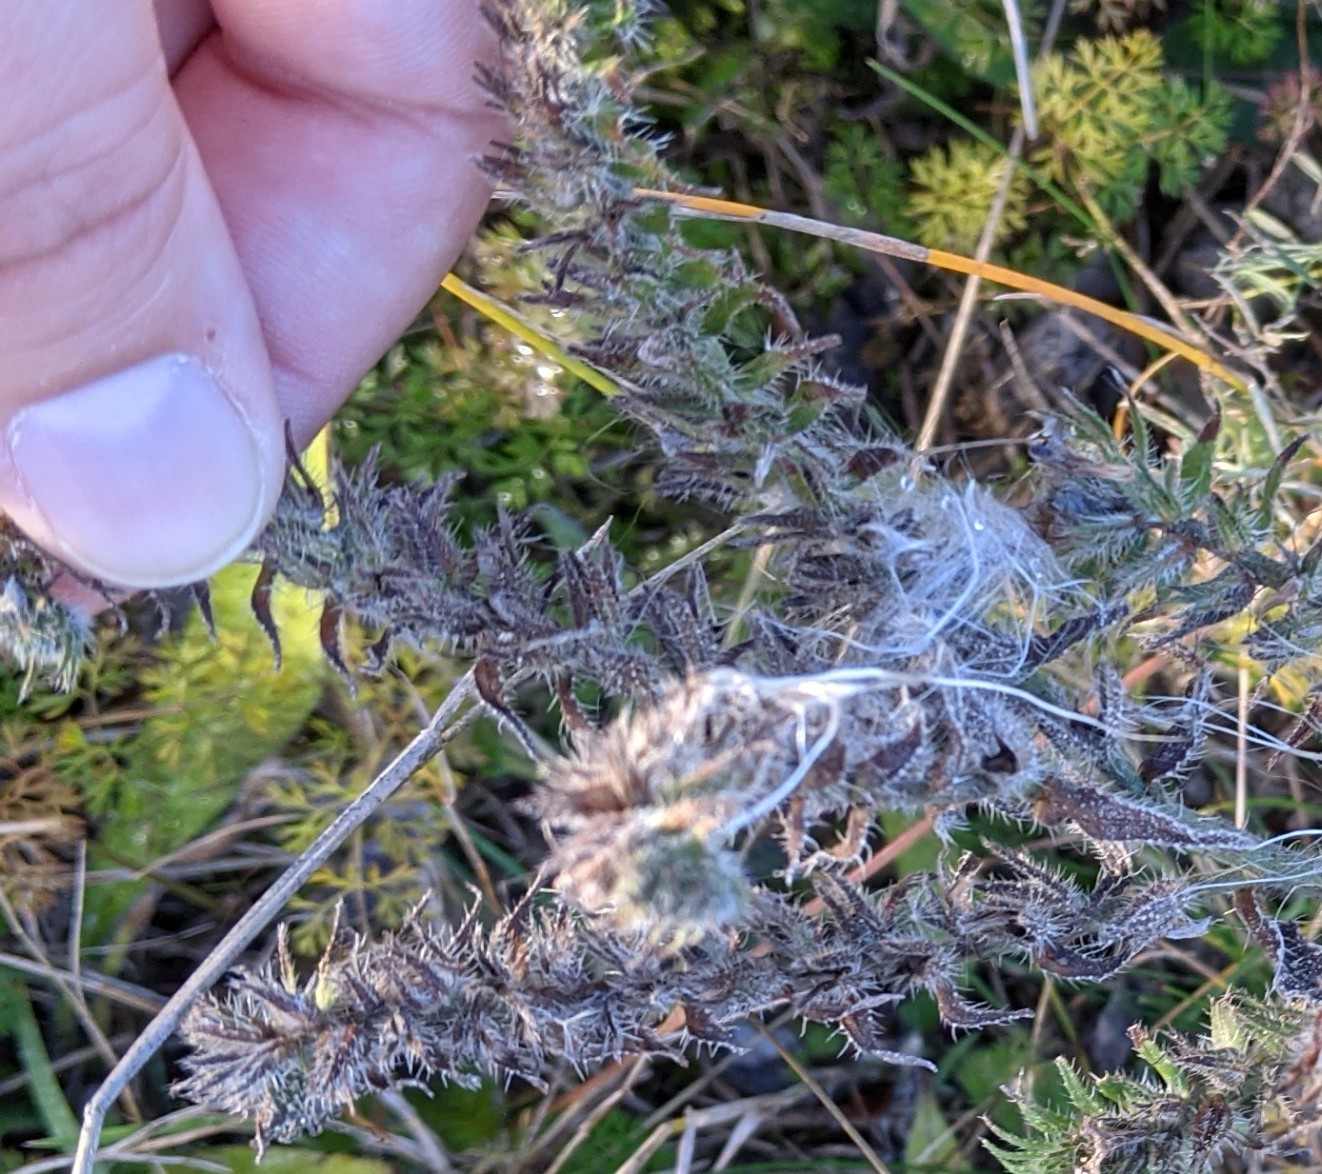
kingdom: Plantae
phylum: Tracheophyta
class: Magnoliopsida
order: Boraginales
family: Boraginaceae
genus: Echium
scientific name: Echium vulgare
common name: Common viper's bugloss
